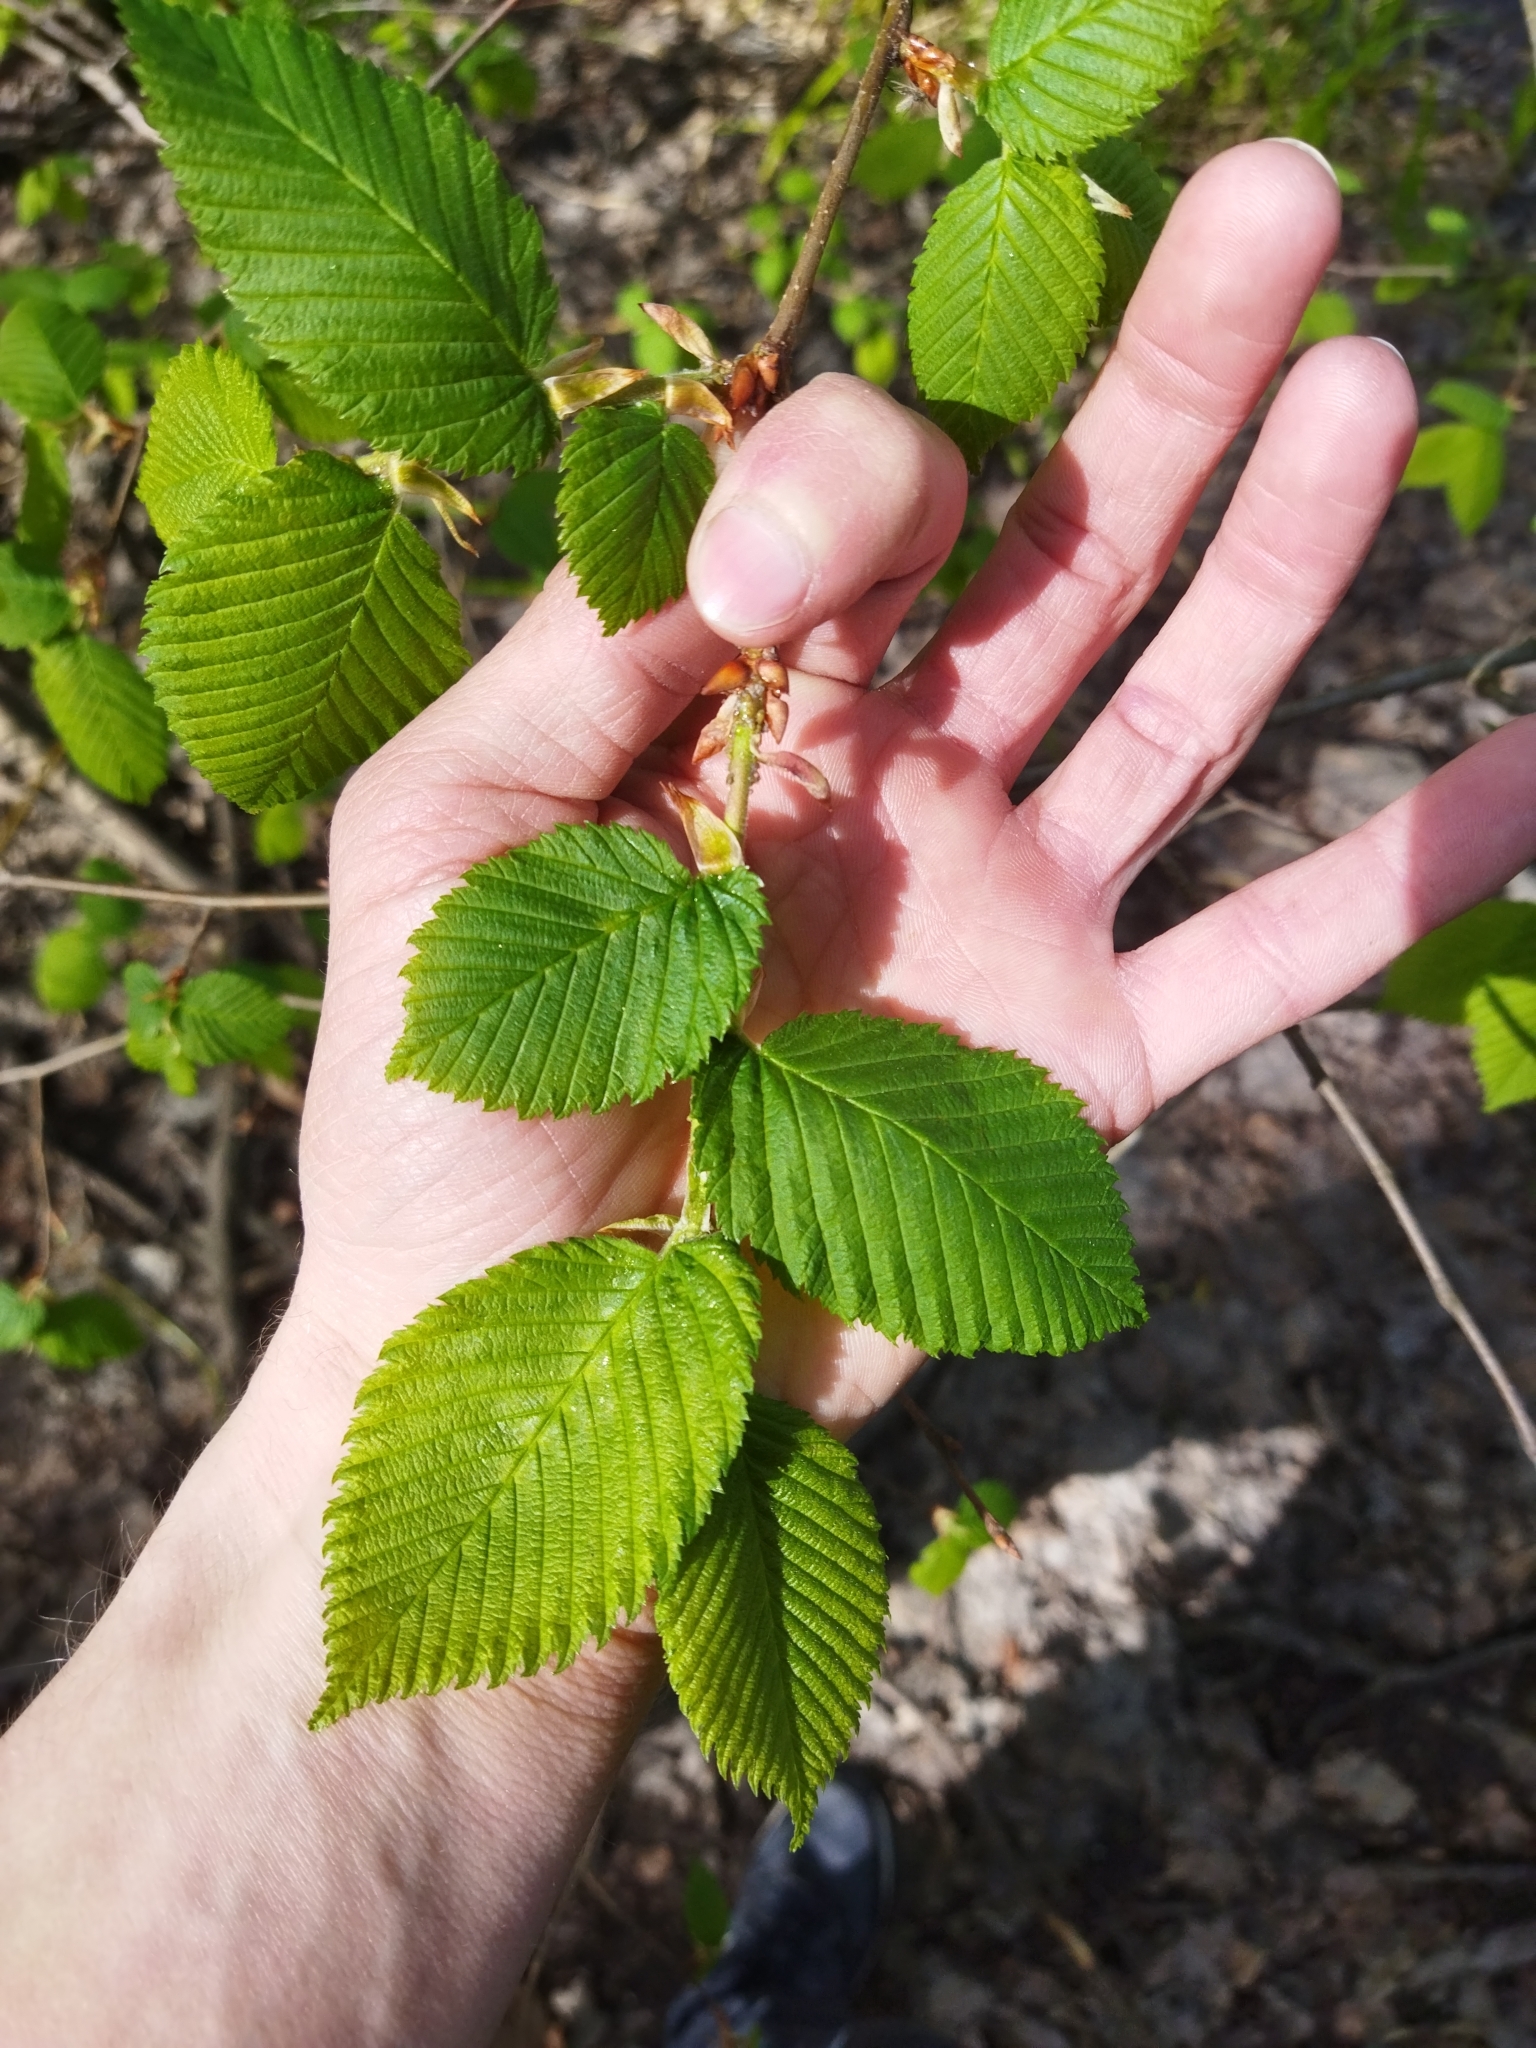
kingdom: Plantae
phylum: Tracheophyta
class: Magnoliopsida
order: Rosales
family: Ulmaceae
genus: Ulmus
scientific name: Ulmus laevis
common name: European white-elm
